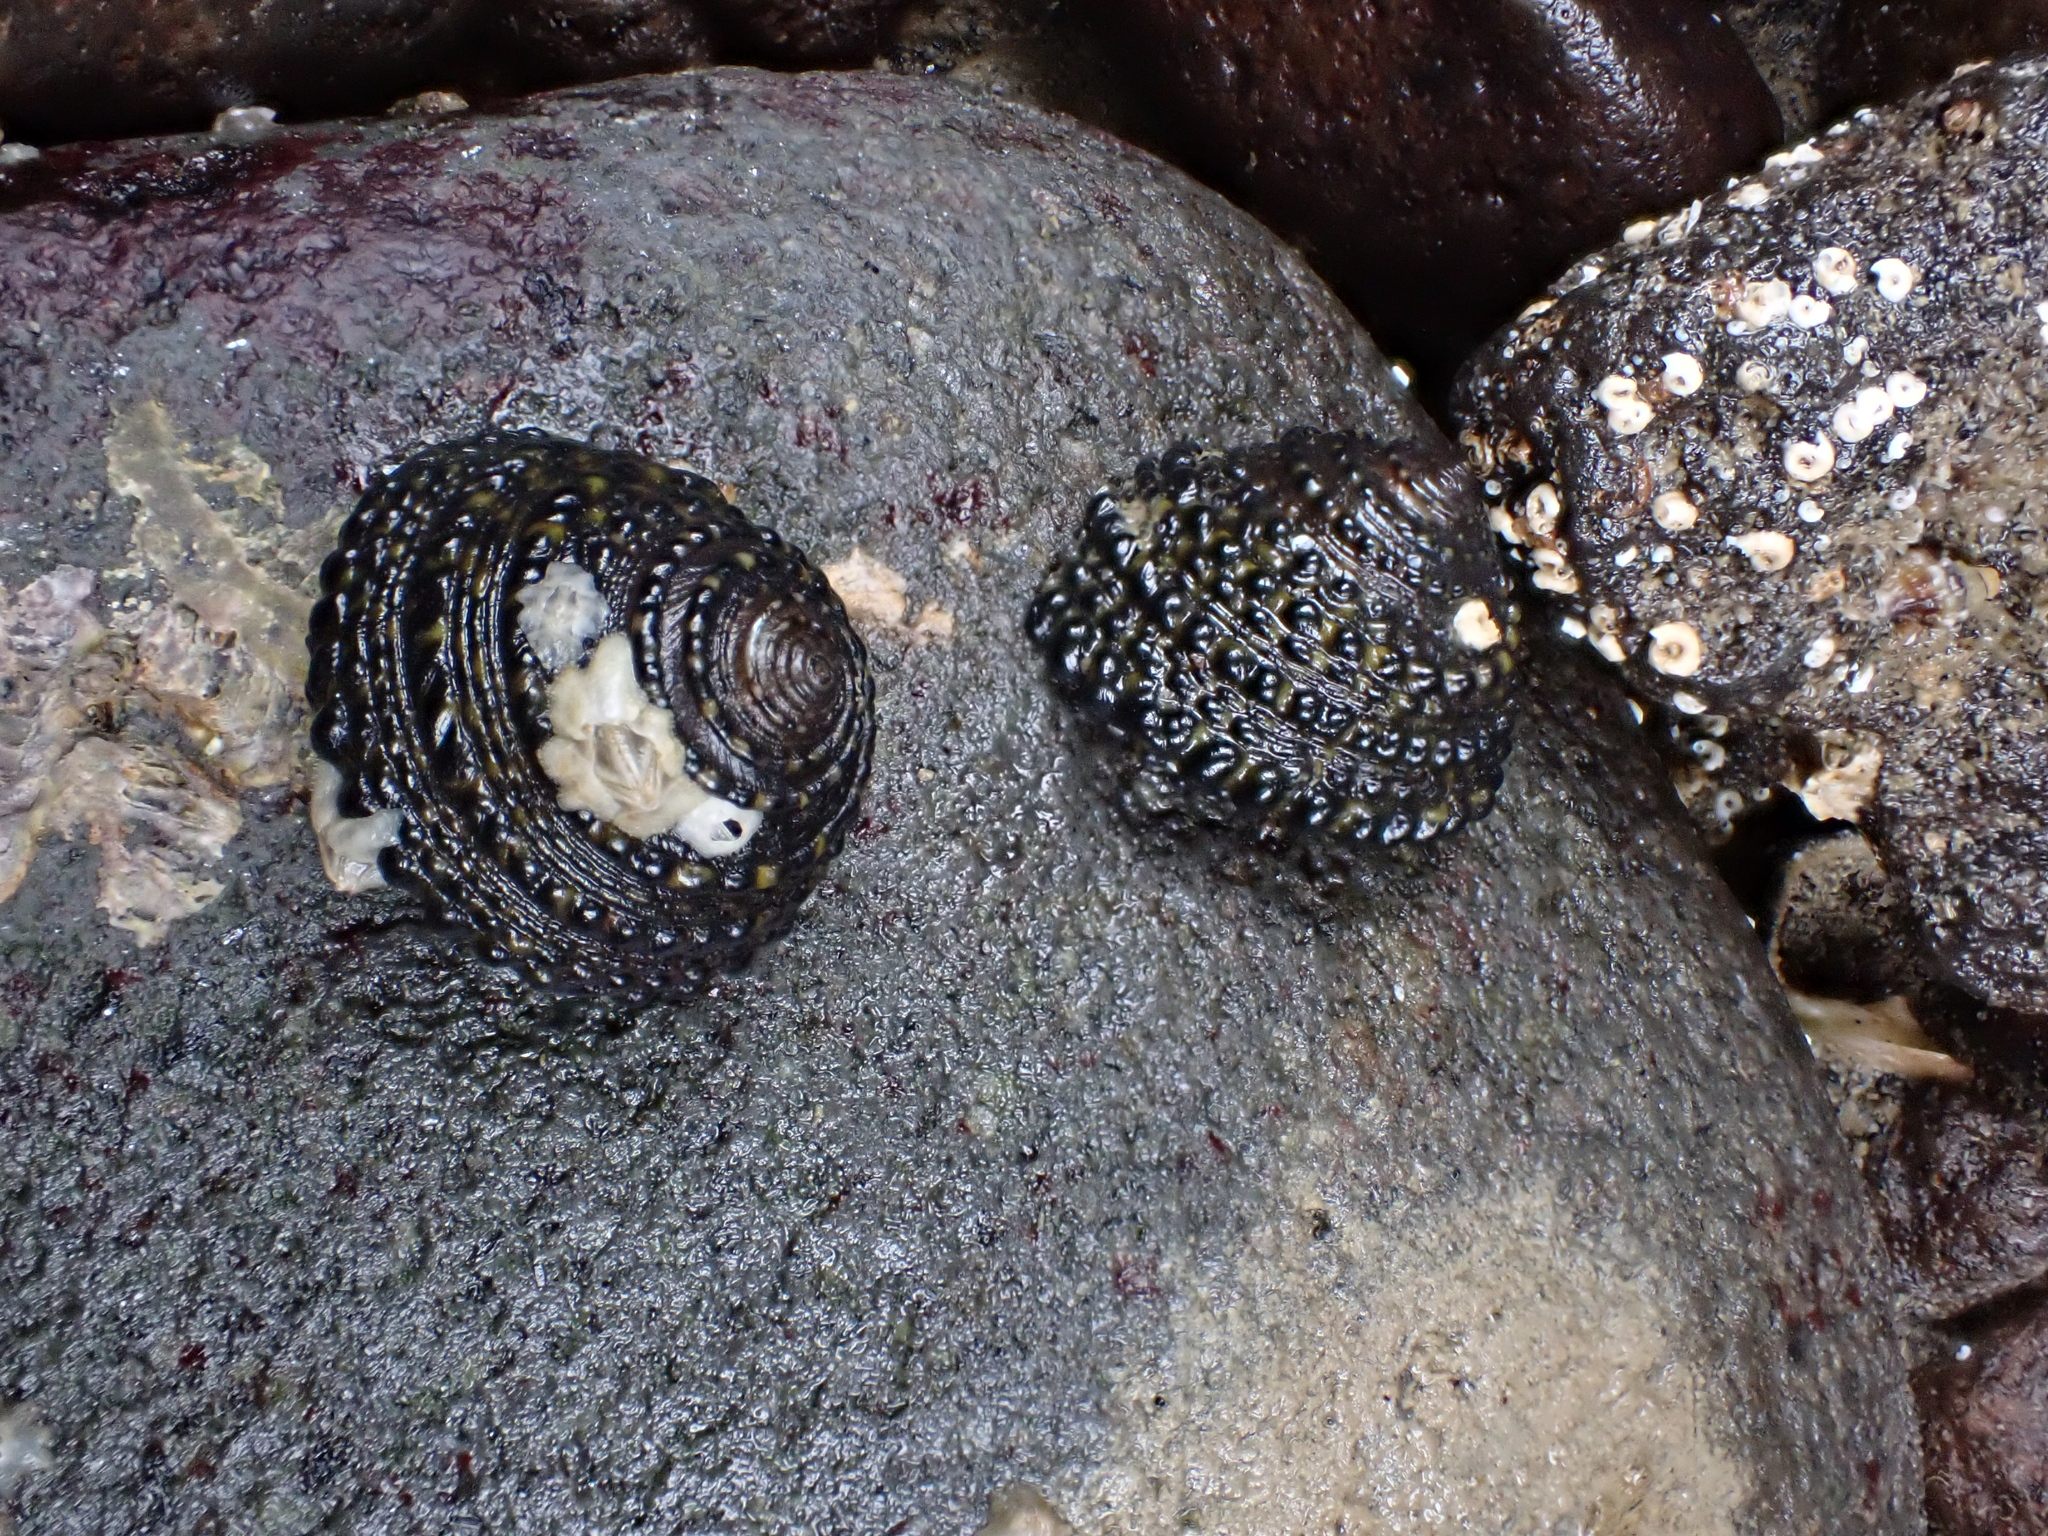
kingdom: Animalia
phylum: Mollusca
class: Gastropoda
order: Trochida
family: Trochidae
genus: Diloma
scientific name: Diloma bicanaliculatum
